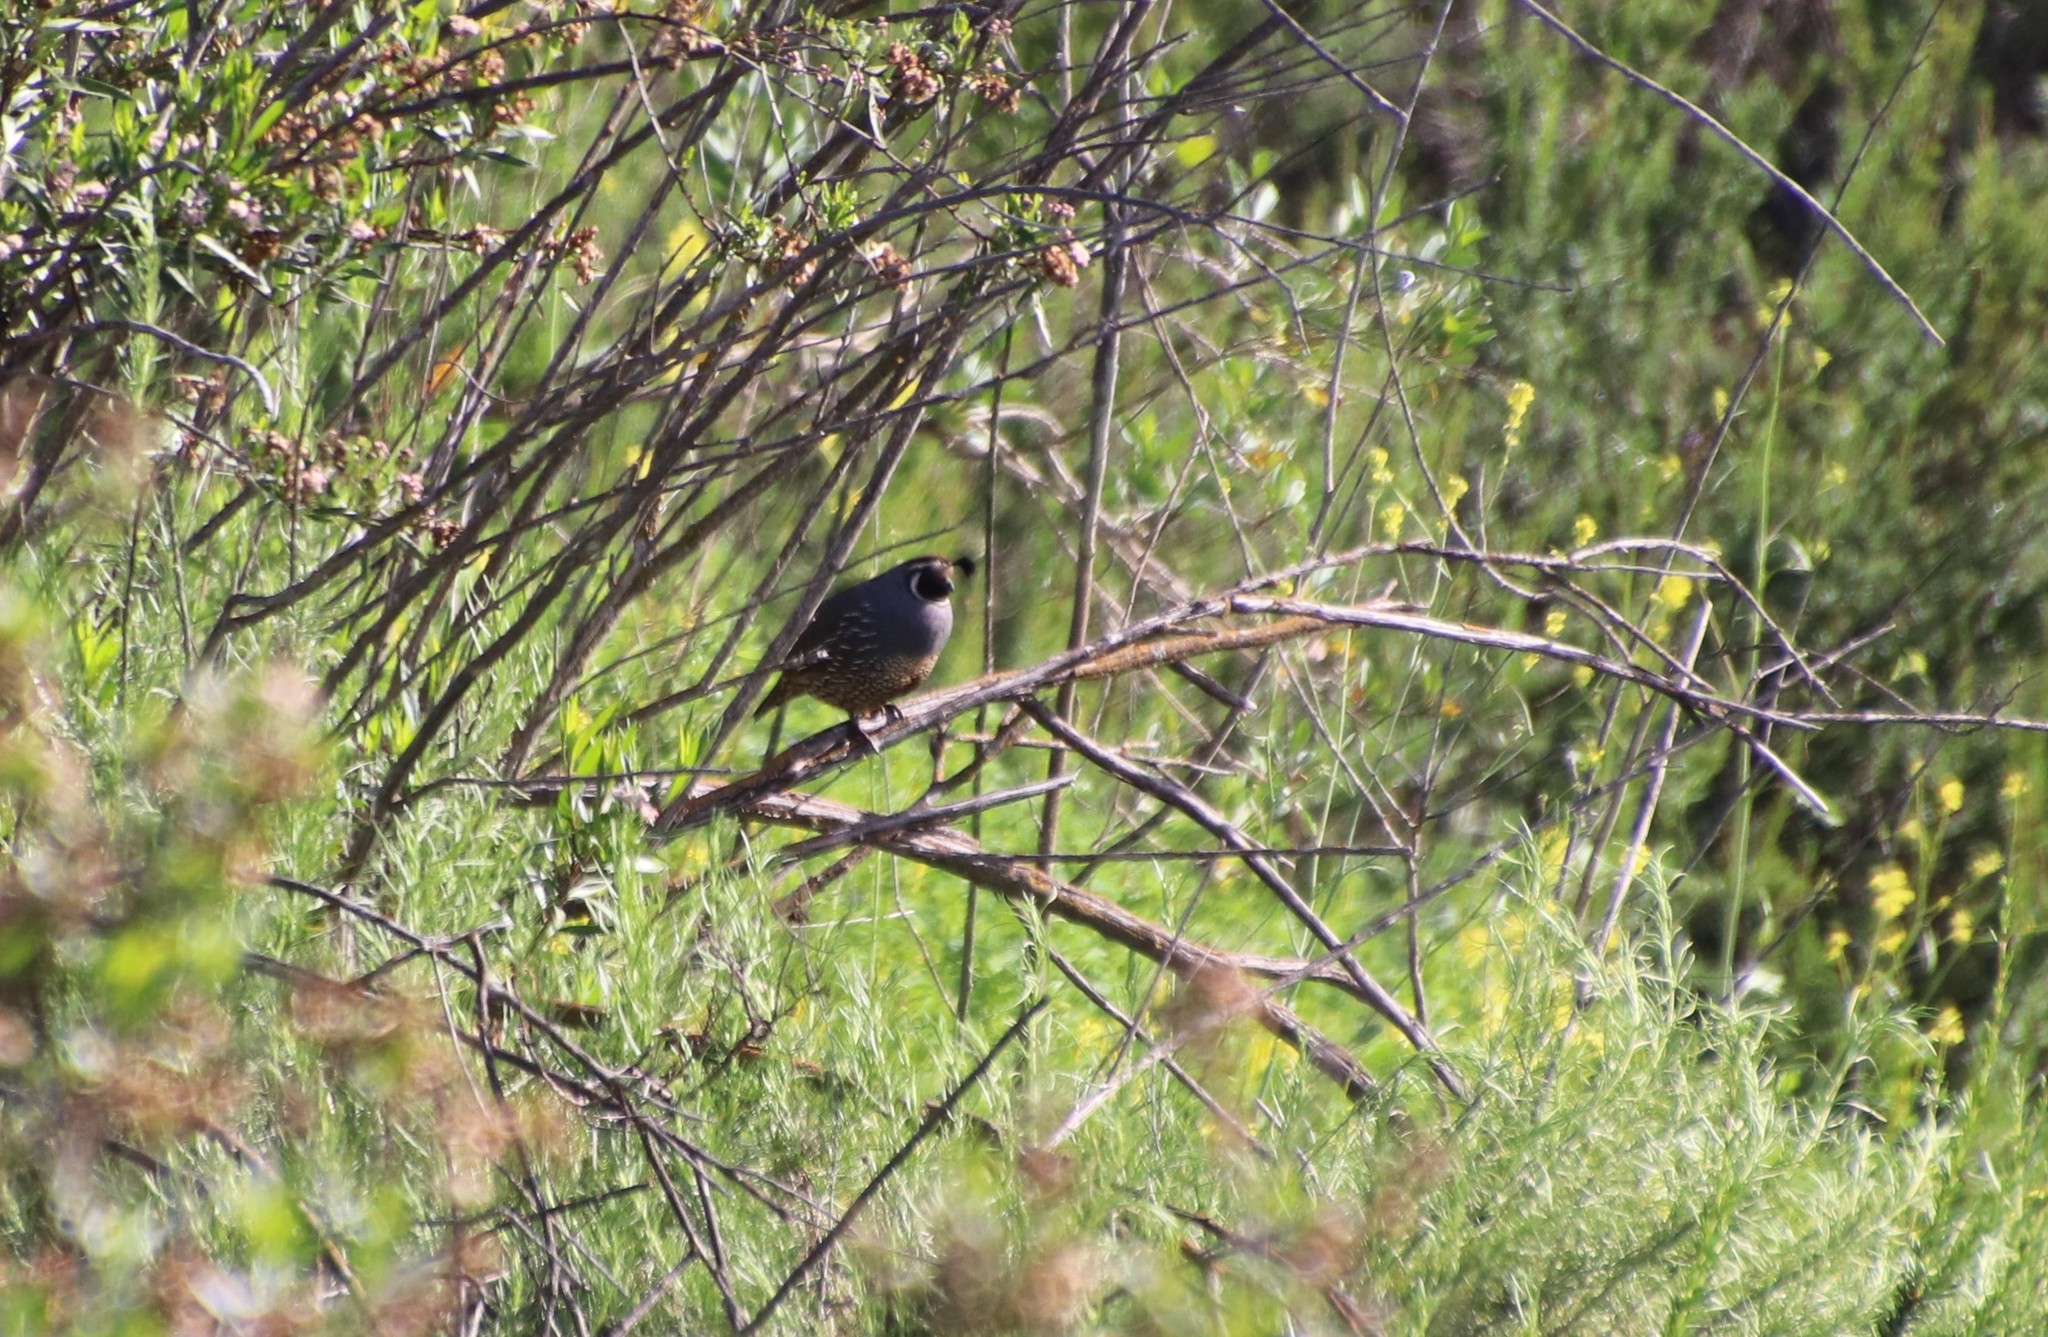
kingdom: Animalia
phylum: Chordata
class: Aves
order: Galliformes
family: Odontophoridae
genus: Callipepla
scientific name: Callipepla californica
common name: California quail
